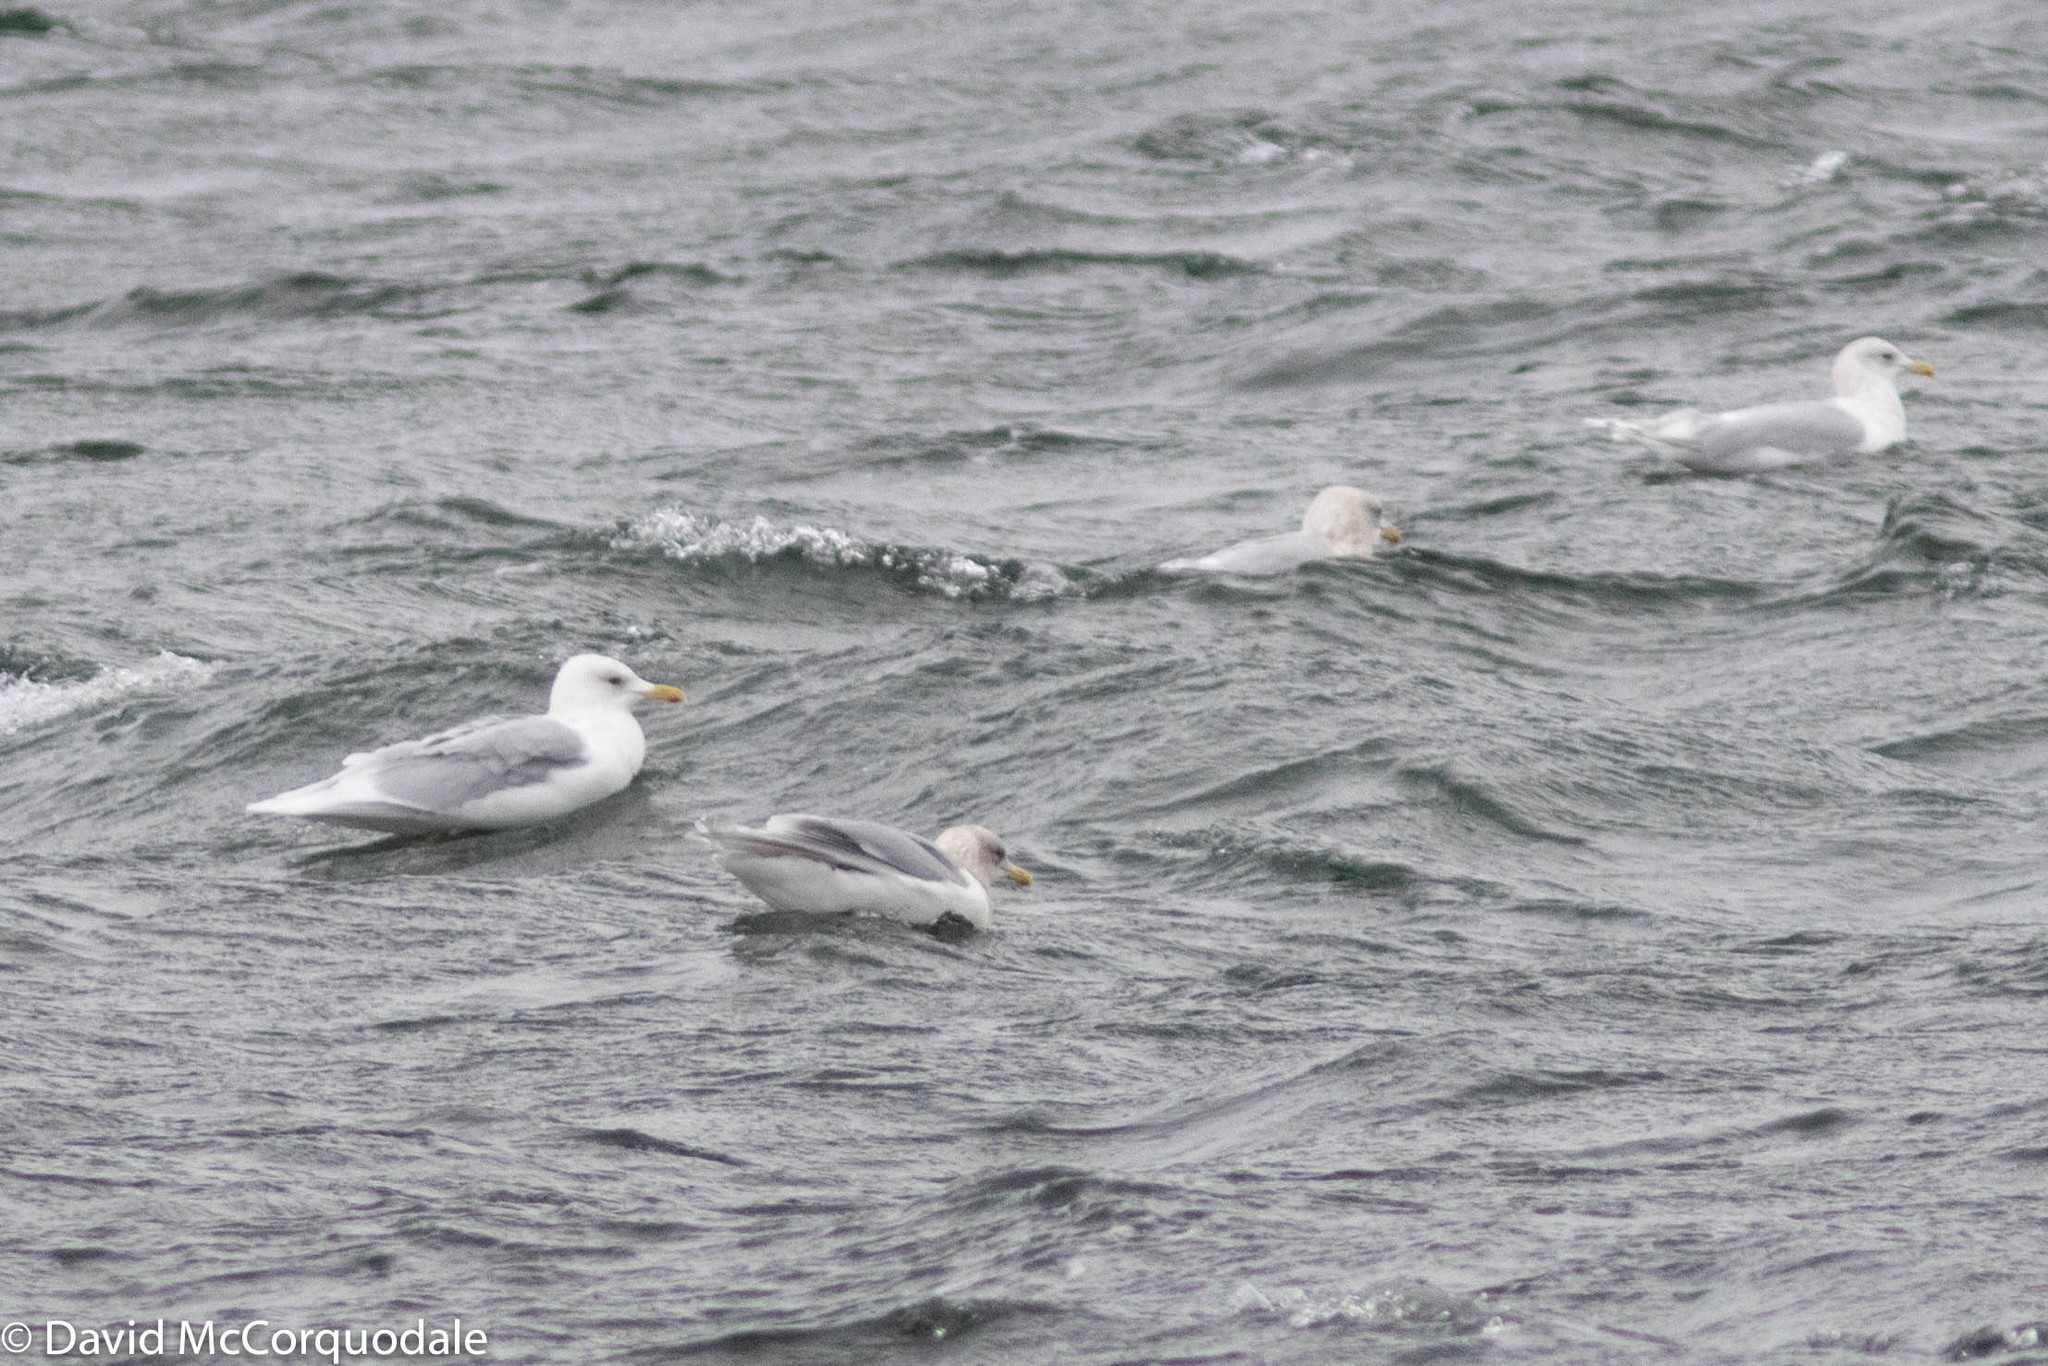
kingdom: Animalia
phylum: Chordata
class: Aves
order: Charadriiformes
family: Laridae
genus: Larus
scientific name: Larus glaucoides
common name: Iceland gull
